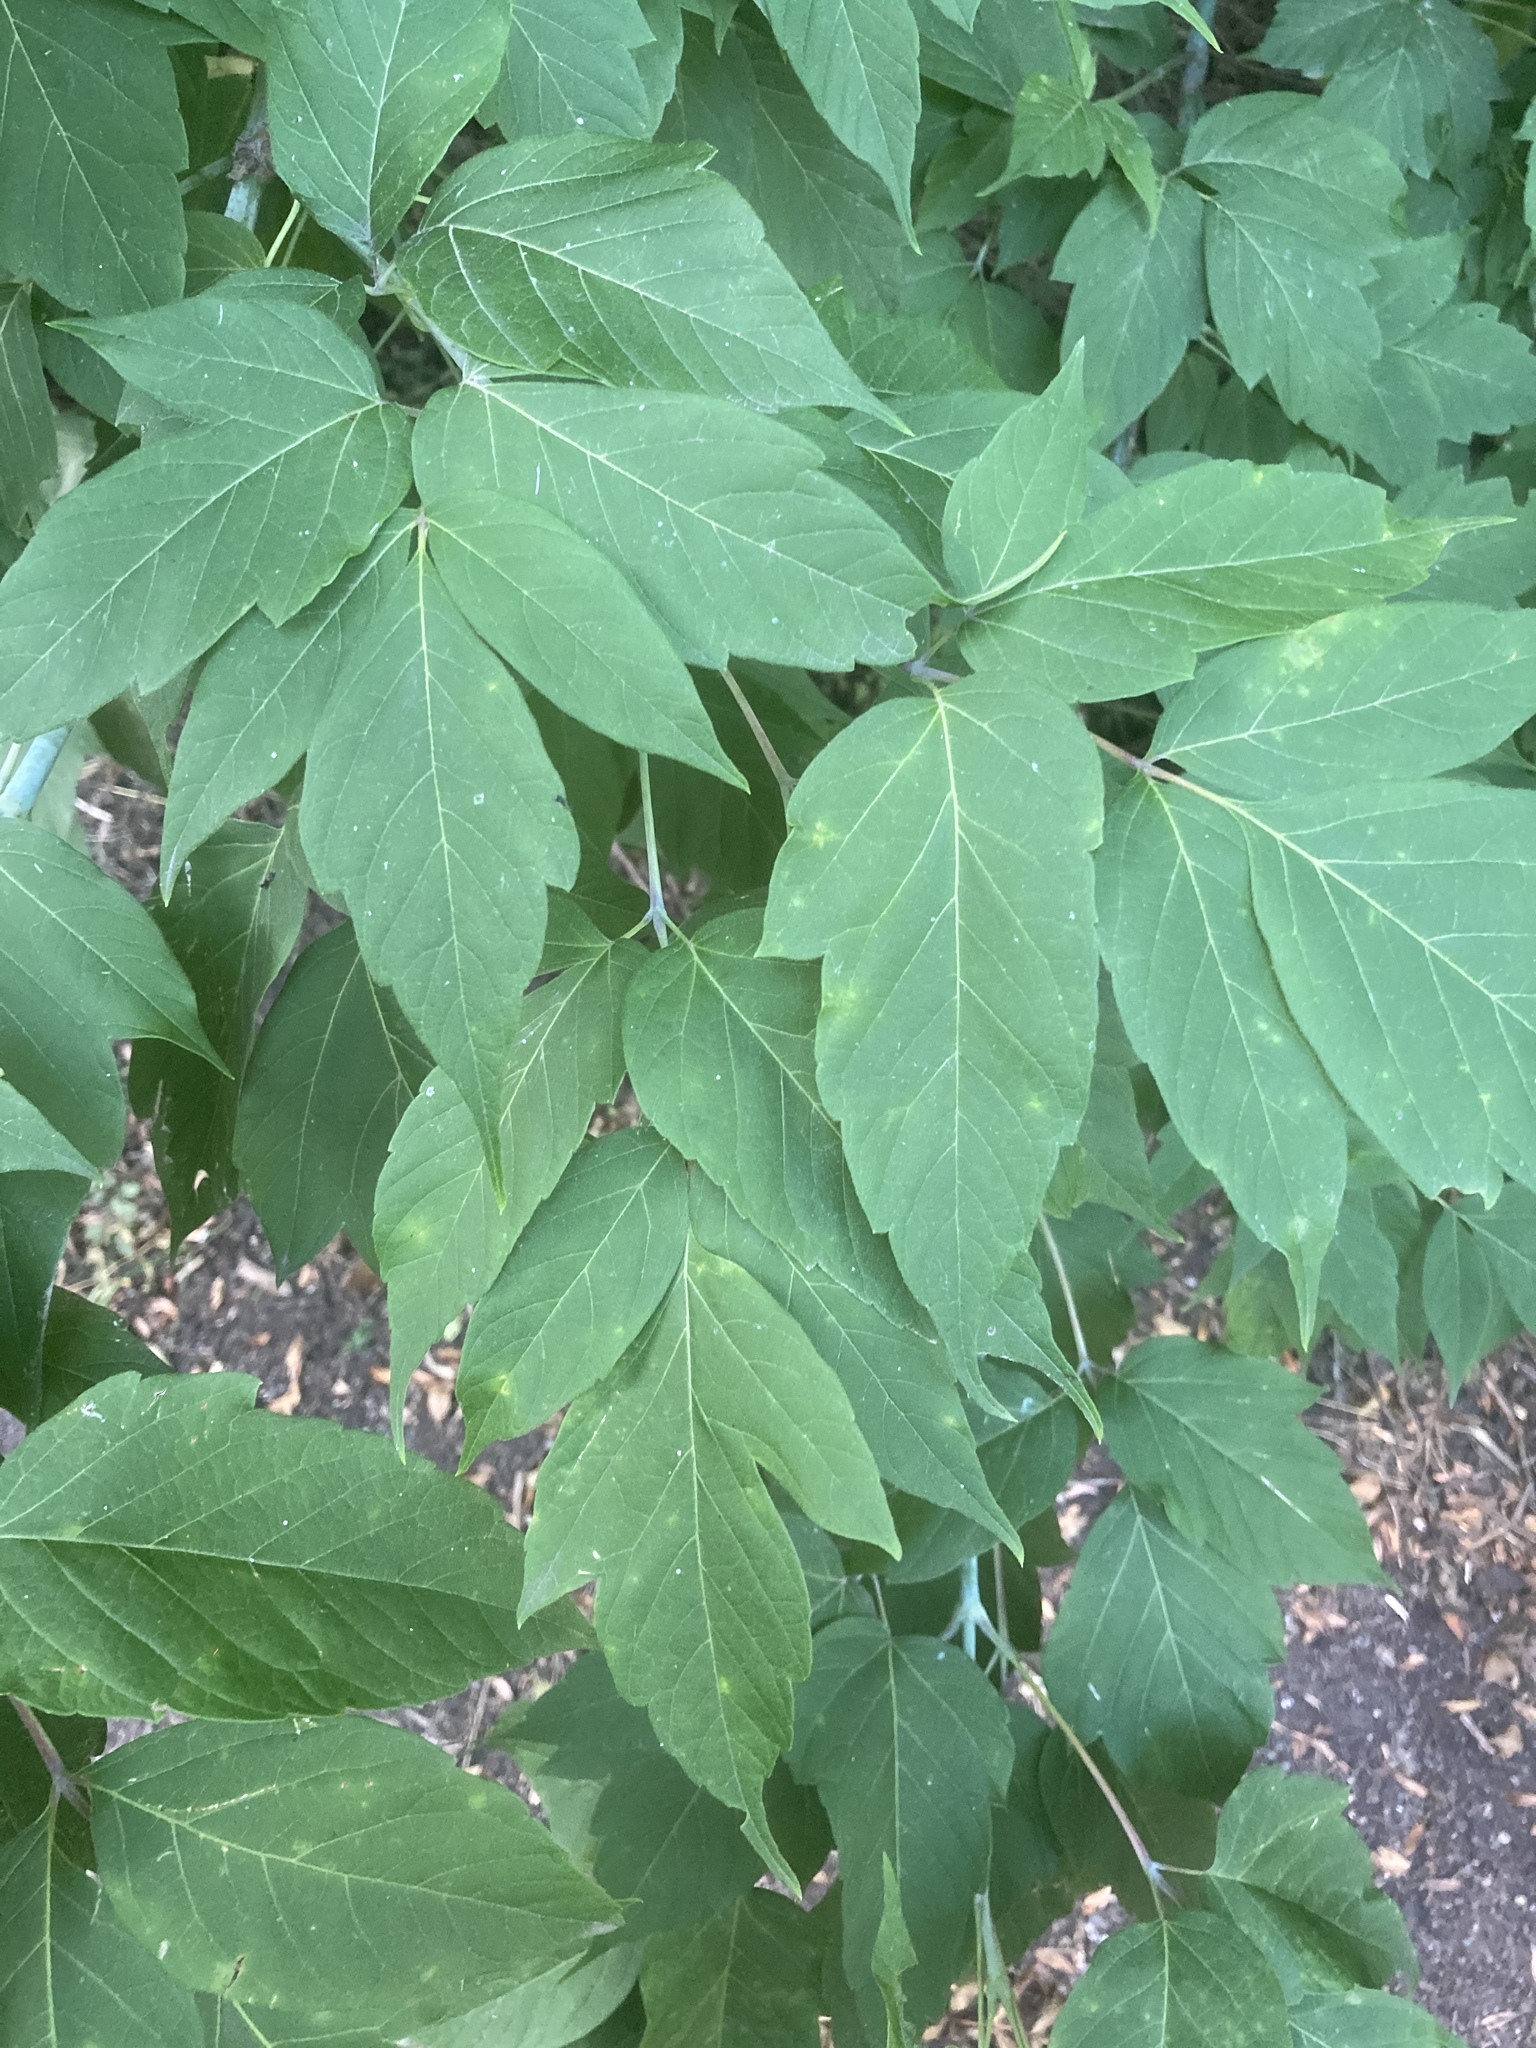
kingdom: Plantae
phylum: Tracheophyta
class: Magnoliopsida
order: Sapindales
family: Sapindaceae
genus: Acer
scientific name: Acer negundo
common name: Ashleaf maple
